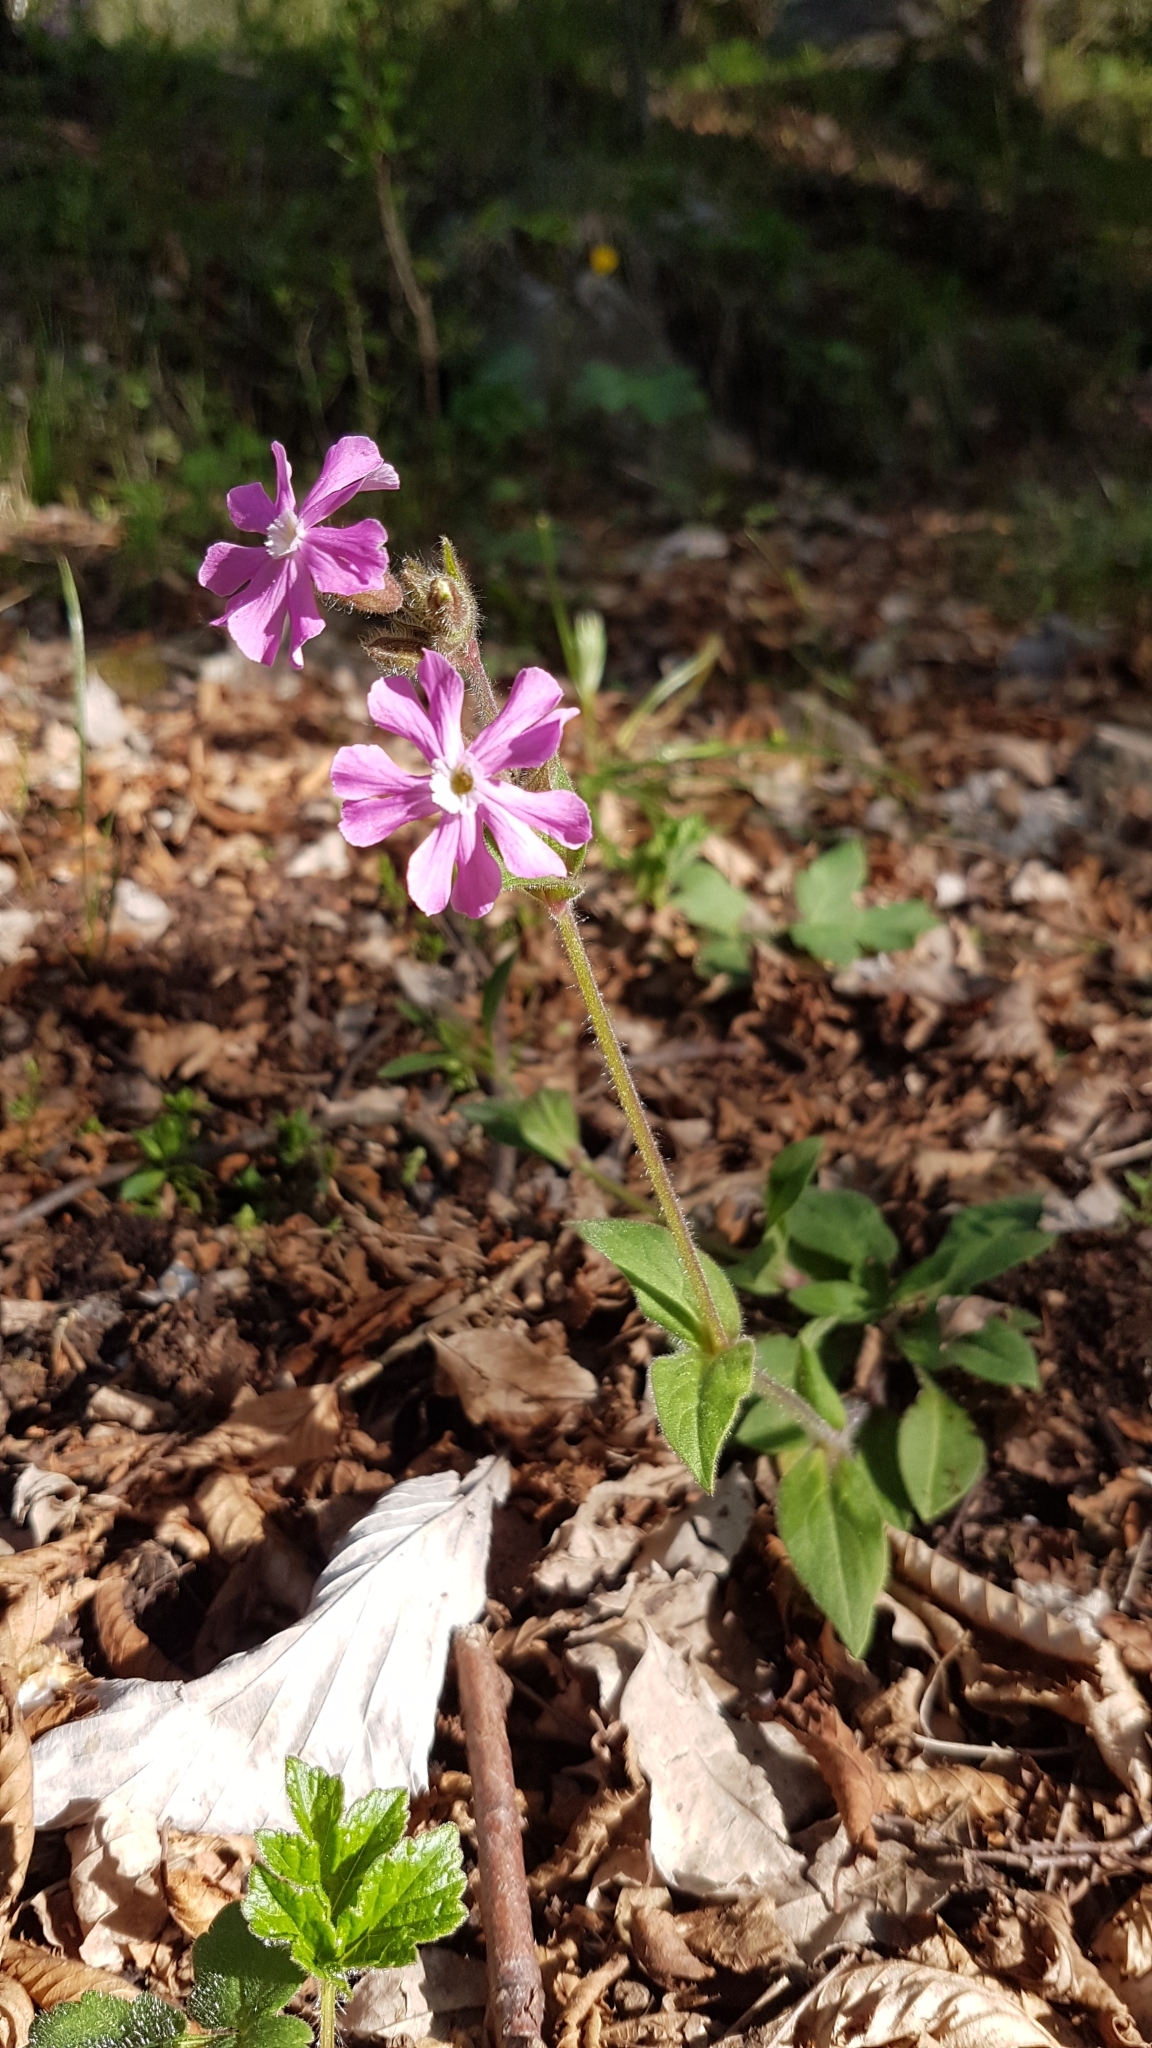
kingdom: Plantae
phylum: Tracheophyta
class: Magnoliopsida
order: Caryophyllales
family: Caryophyllaceae
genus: Silene
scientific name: Silene dioica
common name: Red campion
